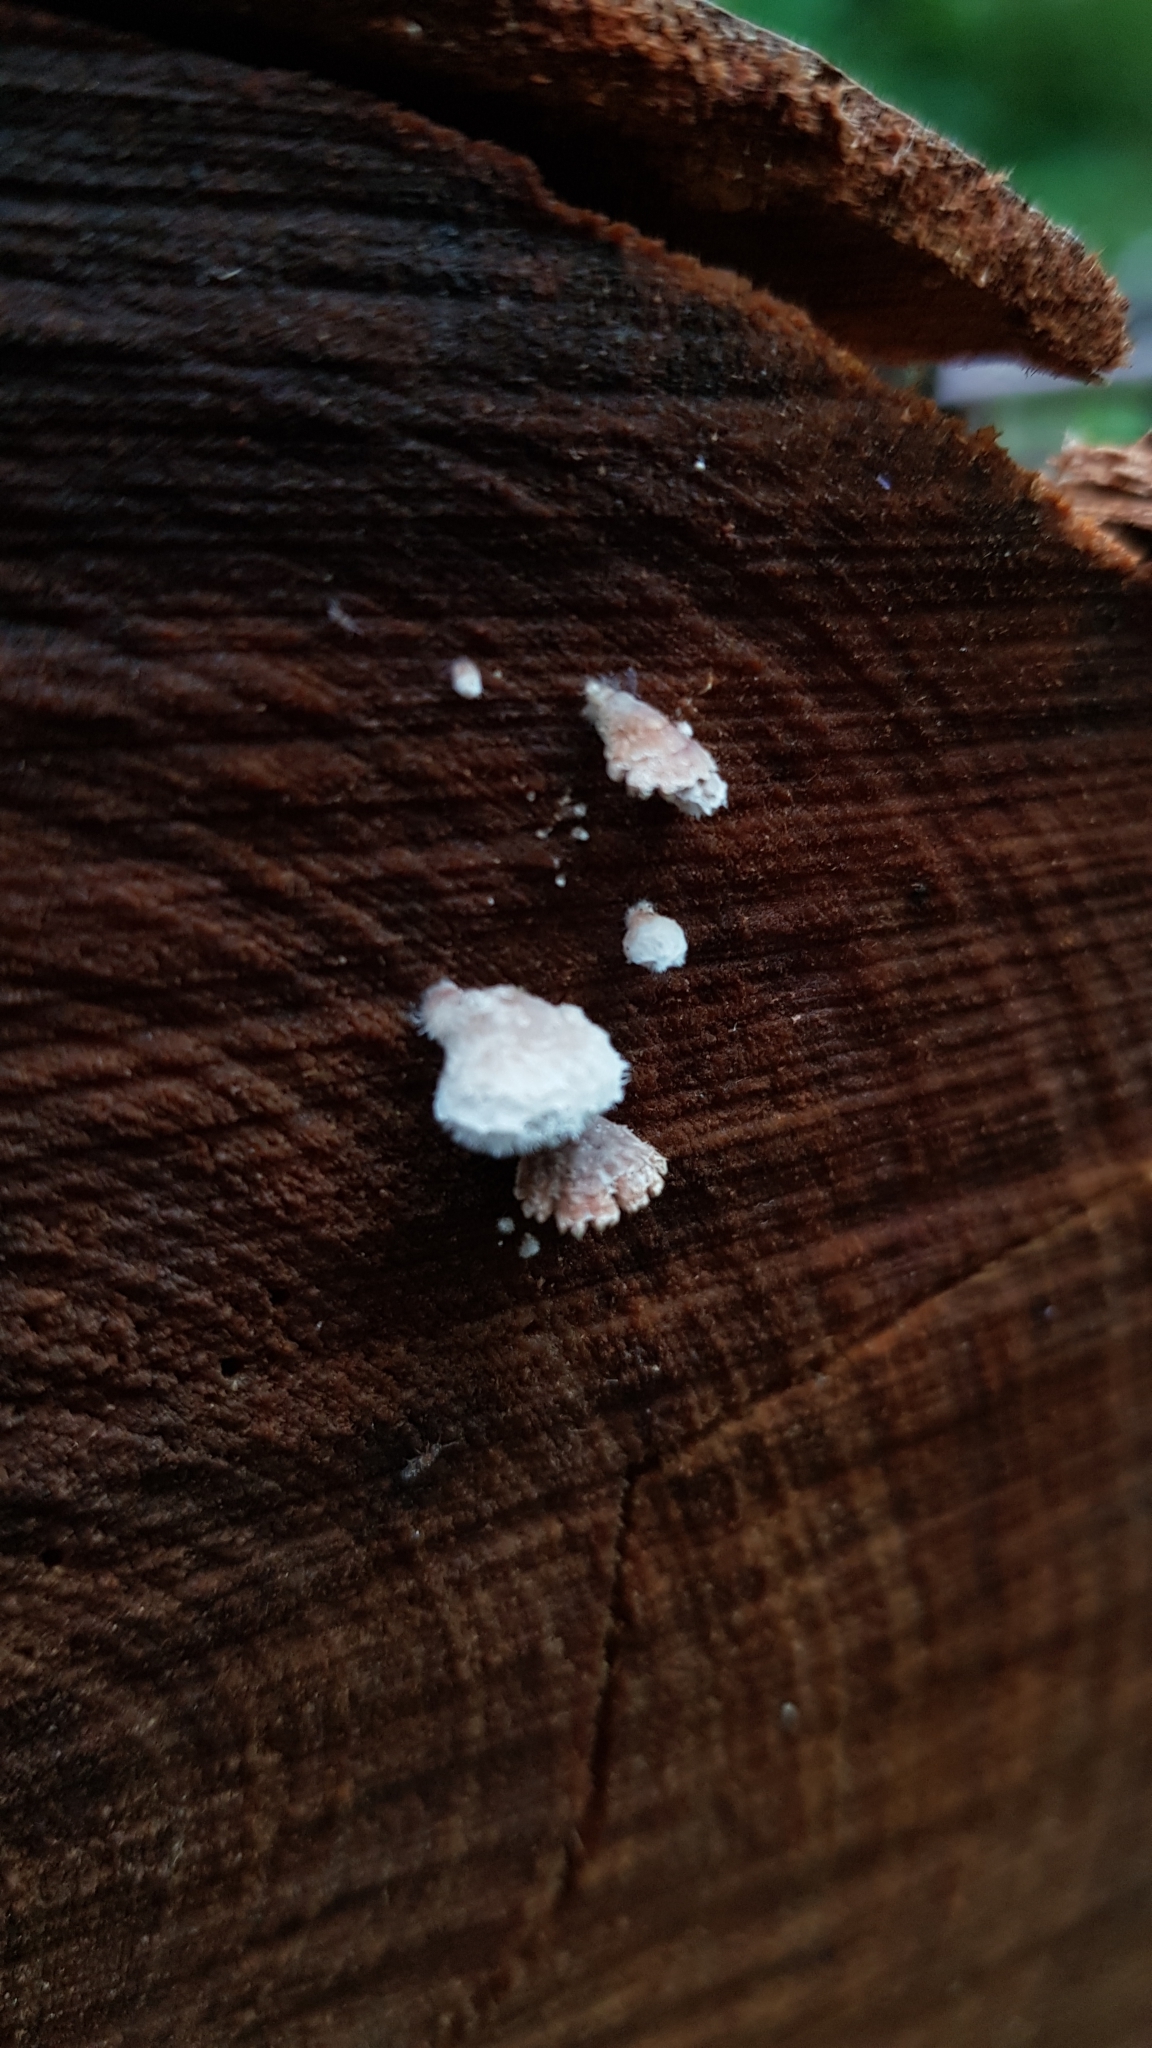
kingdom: Fungi
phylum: Basidiomycota
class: Agaricomycetes
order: Agaricales
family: Schizophyllaceae
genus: Schizophyllum
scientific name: Schizophyllum commune
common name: Common porecrust
